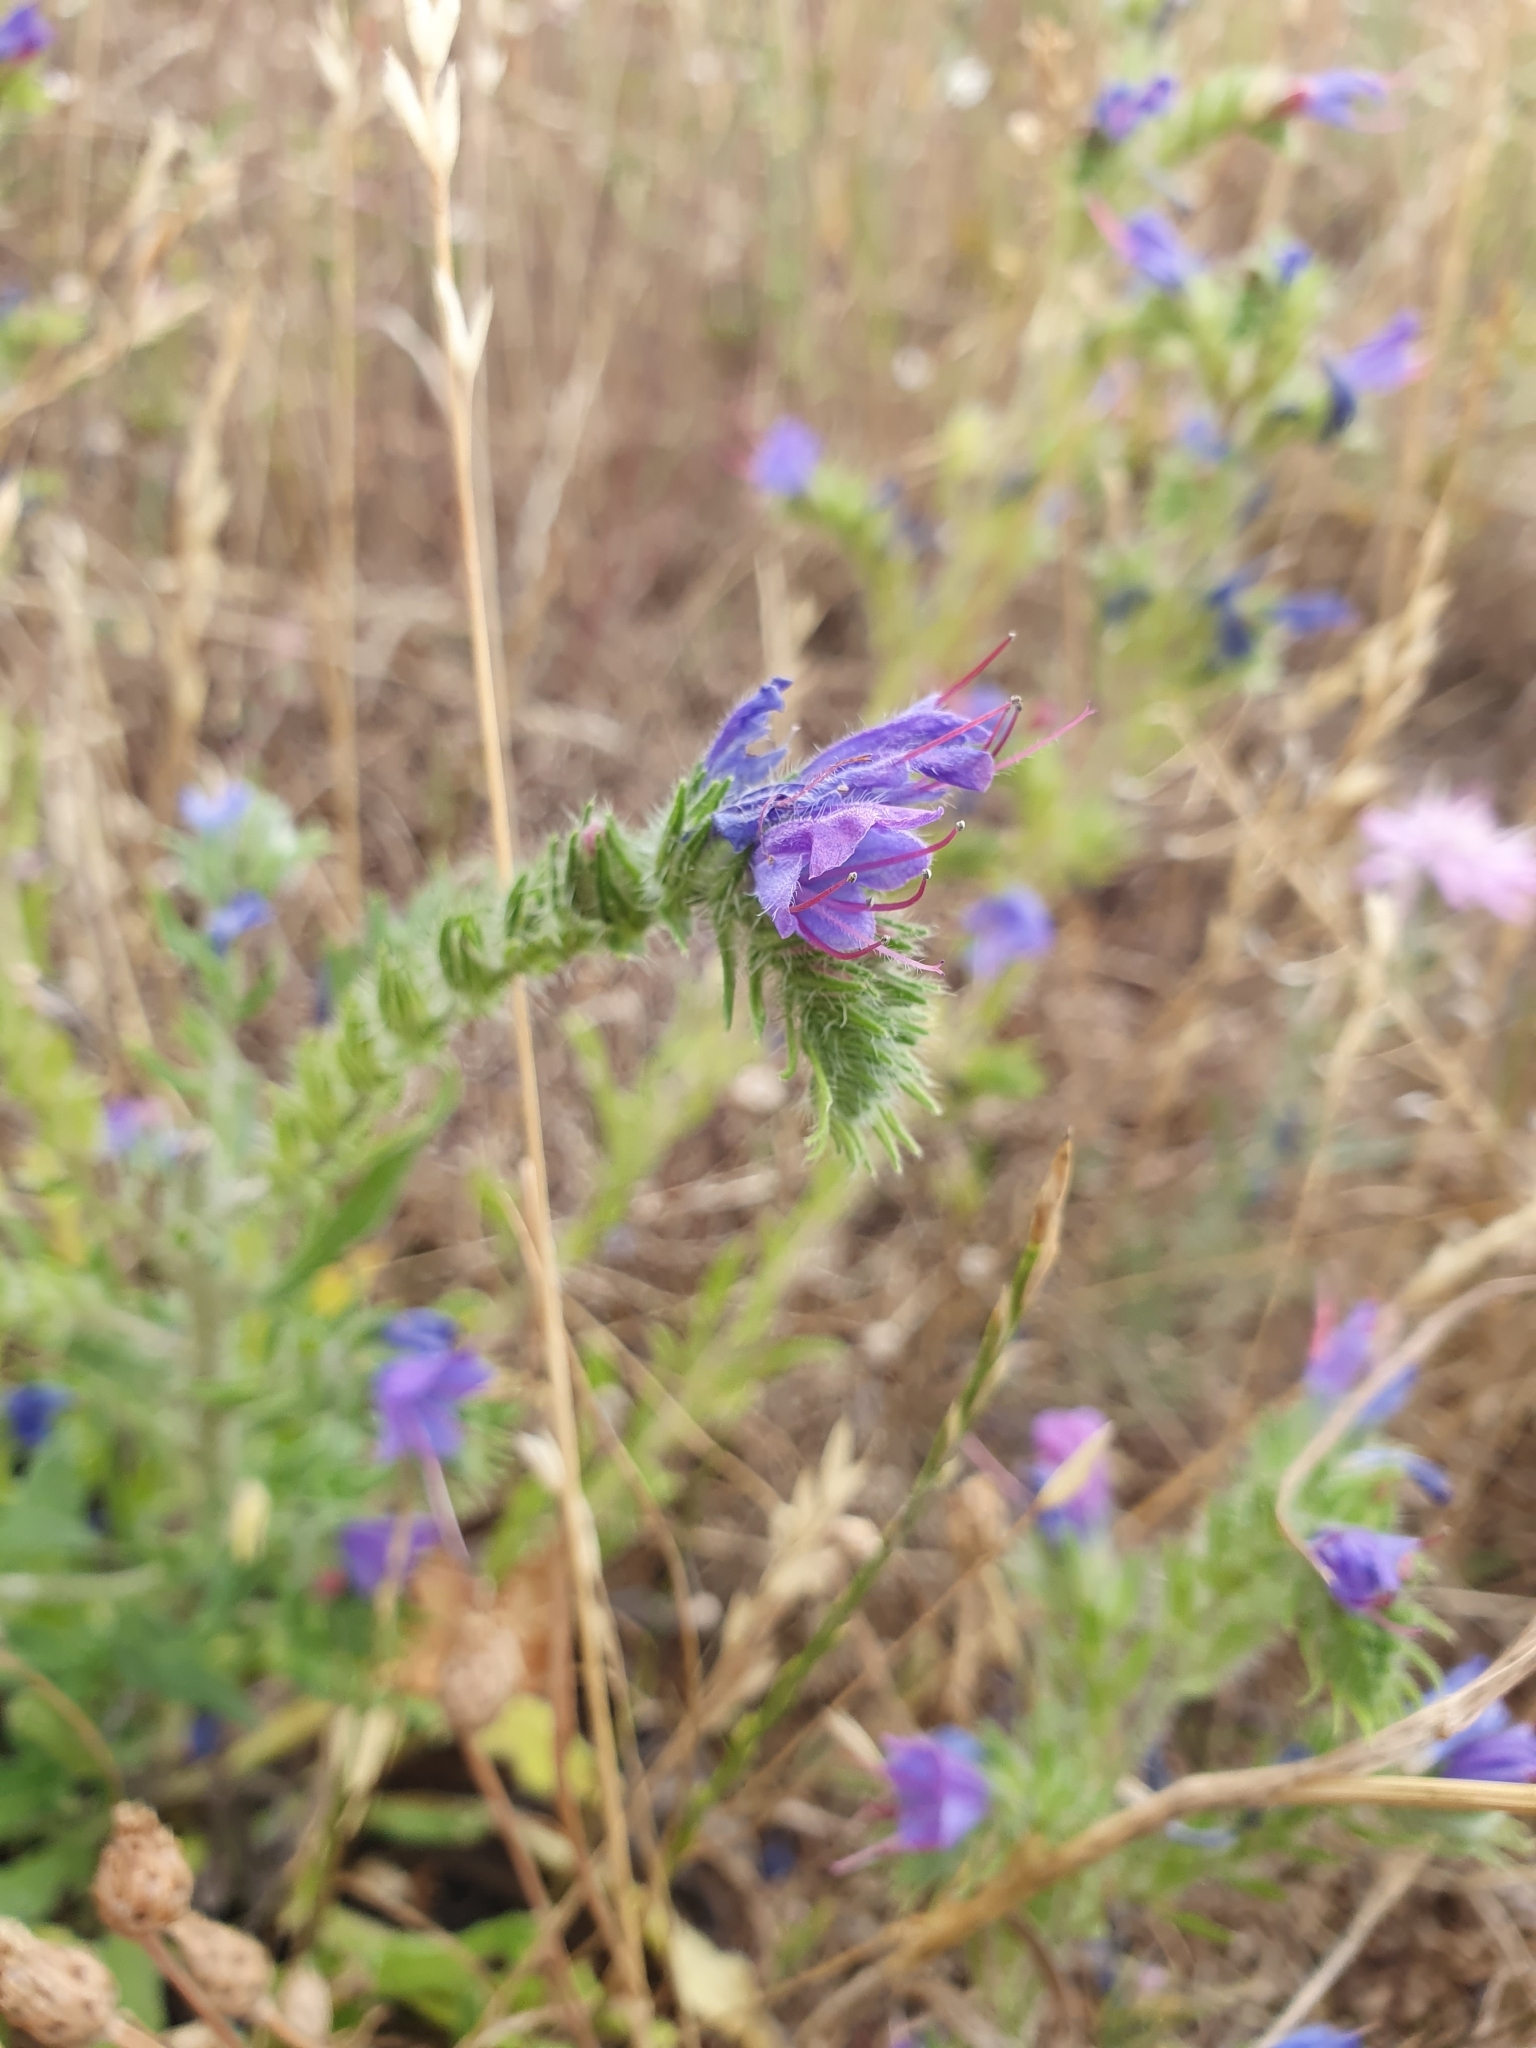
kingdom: Plantae
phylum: Tracheophyta
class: Magnoliopsida
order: Boraginales
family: Boraginaceae
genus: Echium
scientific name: Echium vulgare
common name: Common viper's bugloss
